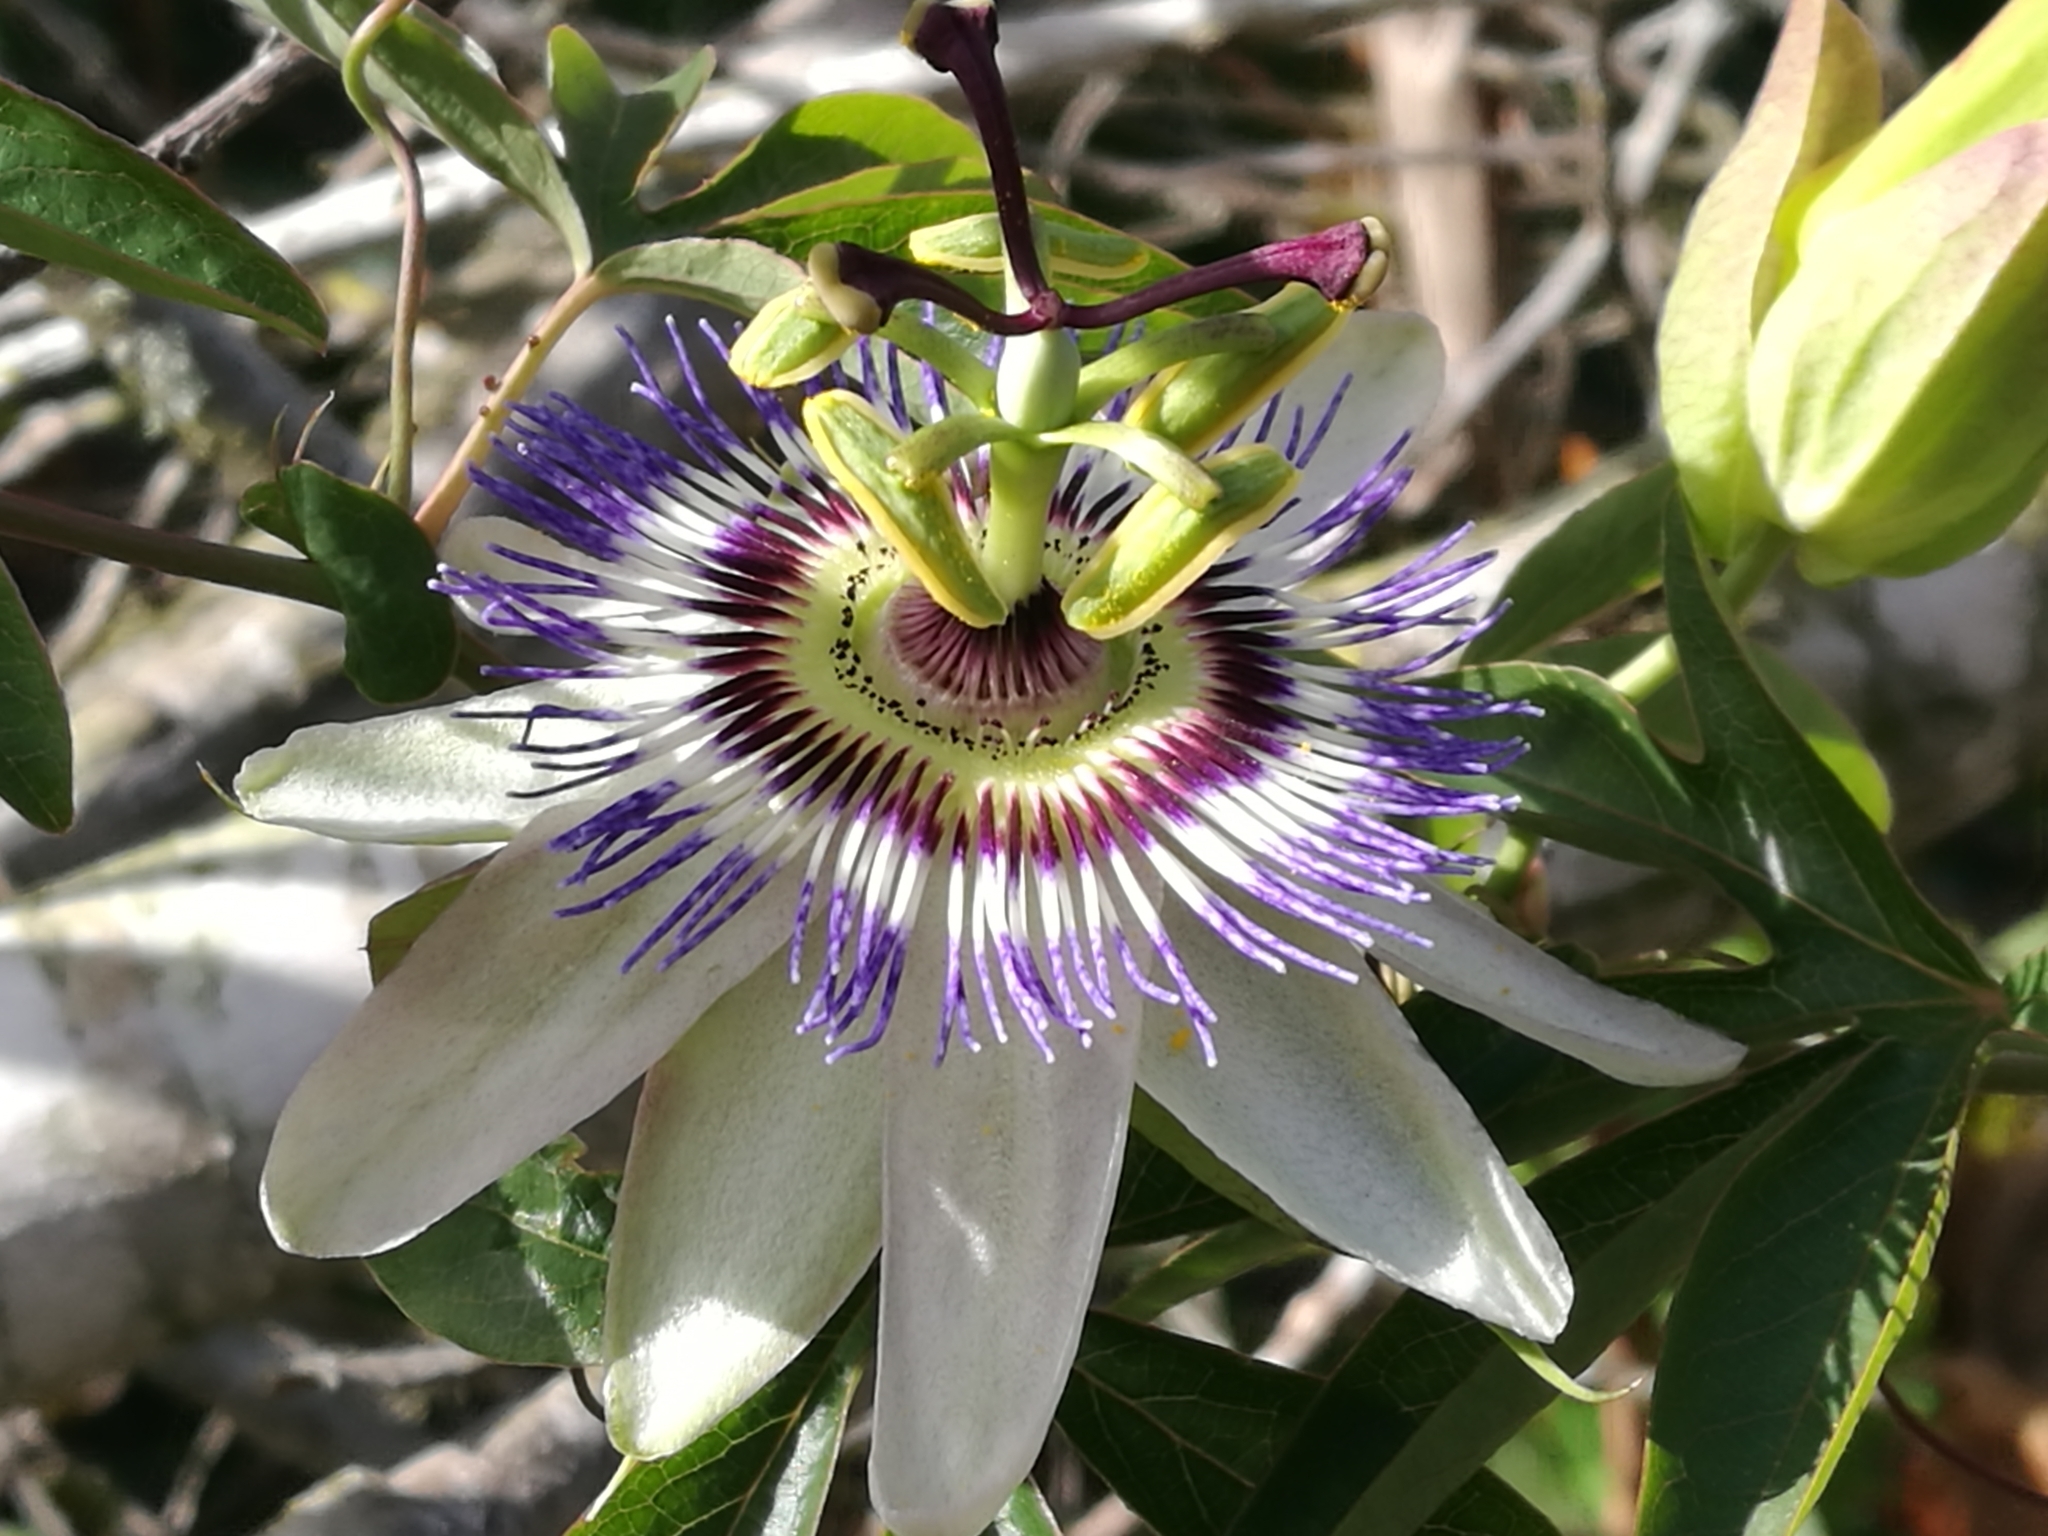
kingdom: Plantae
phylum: Tracheophyta
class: Magnoliopsida
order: Malpighiales
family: Passifloraceae
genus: Passiflora
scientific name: Passiflora caerulea
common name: Blue passionflower
